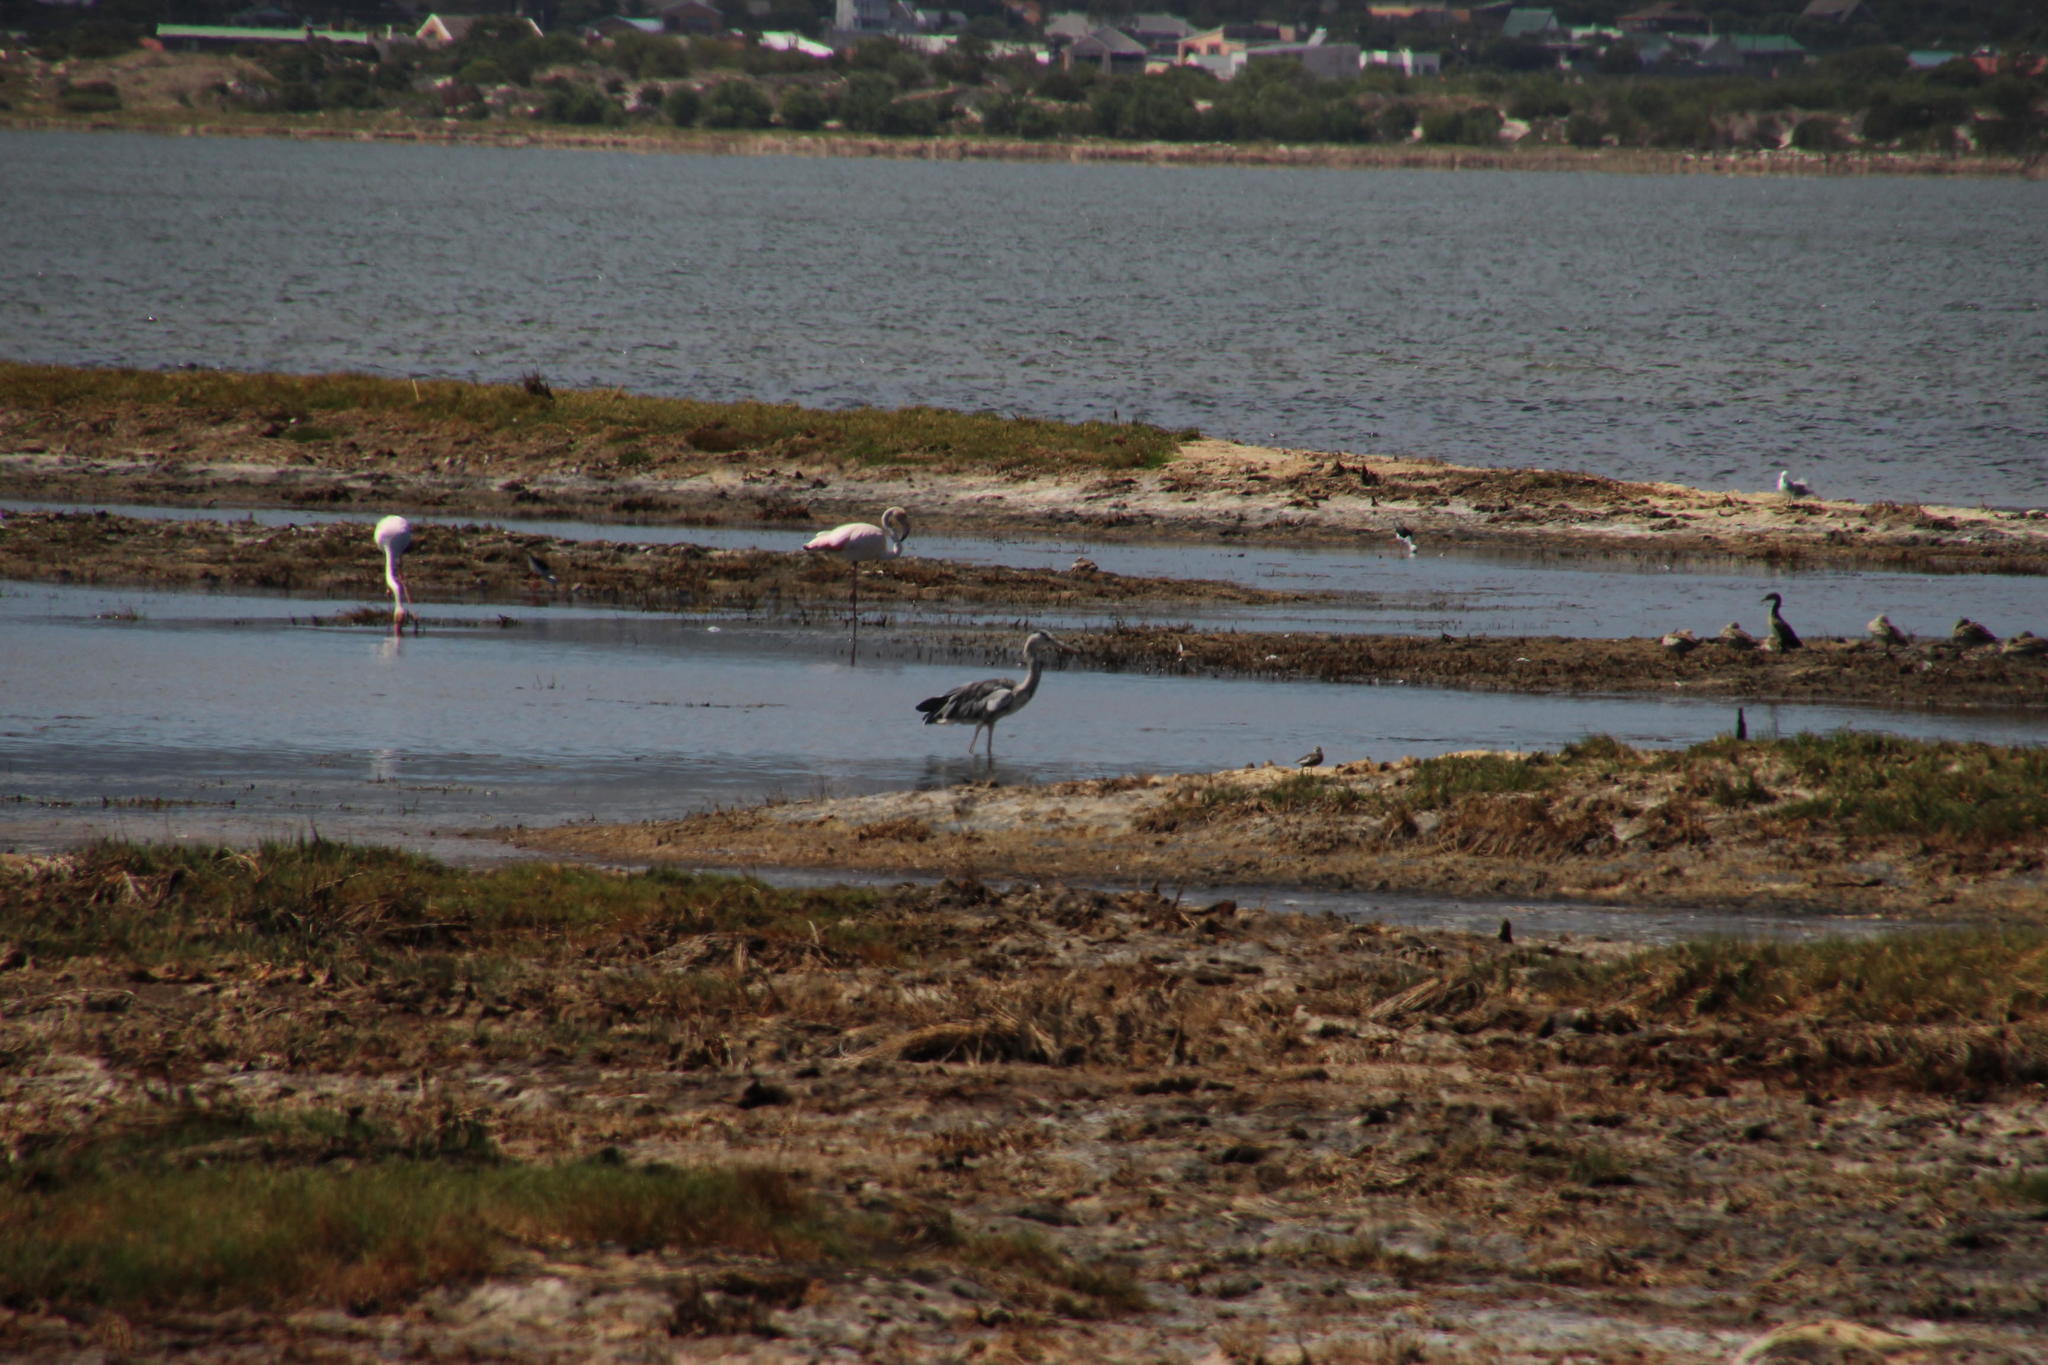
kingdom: Animalia
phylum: Chordata
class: Aves
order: Pelecaniformes
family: Ardeidae
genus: Ardea
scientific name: Ardea cinerea
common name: Grey heron
